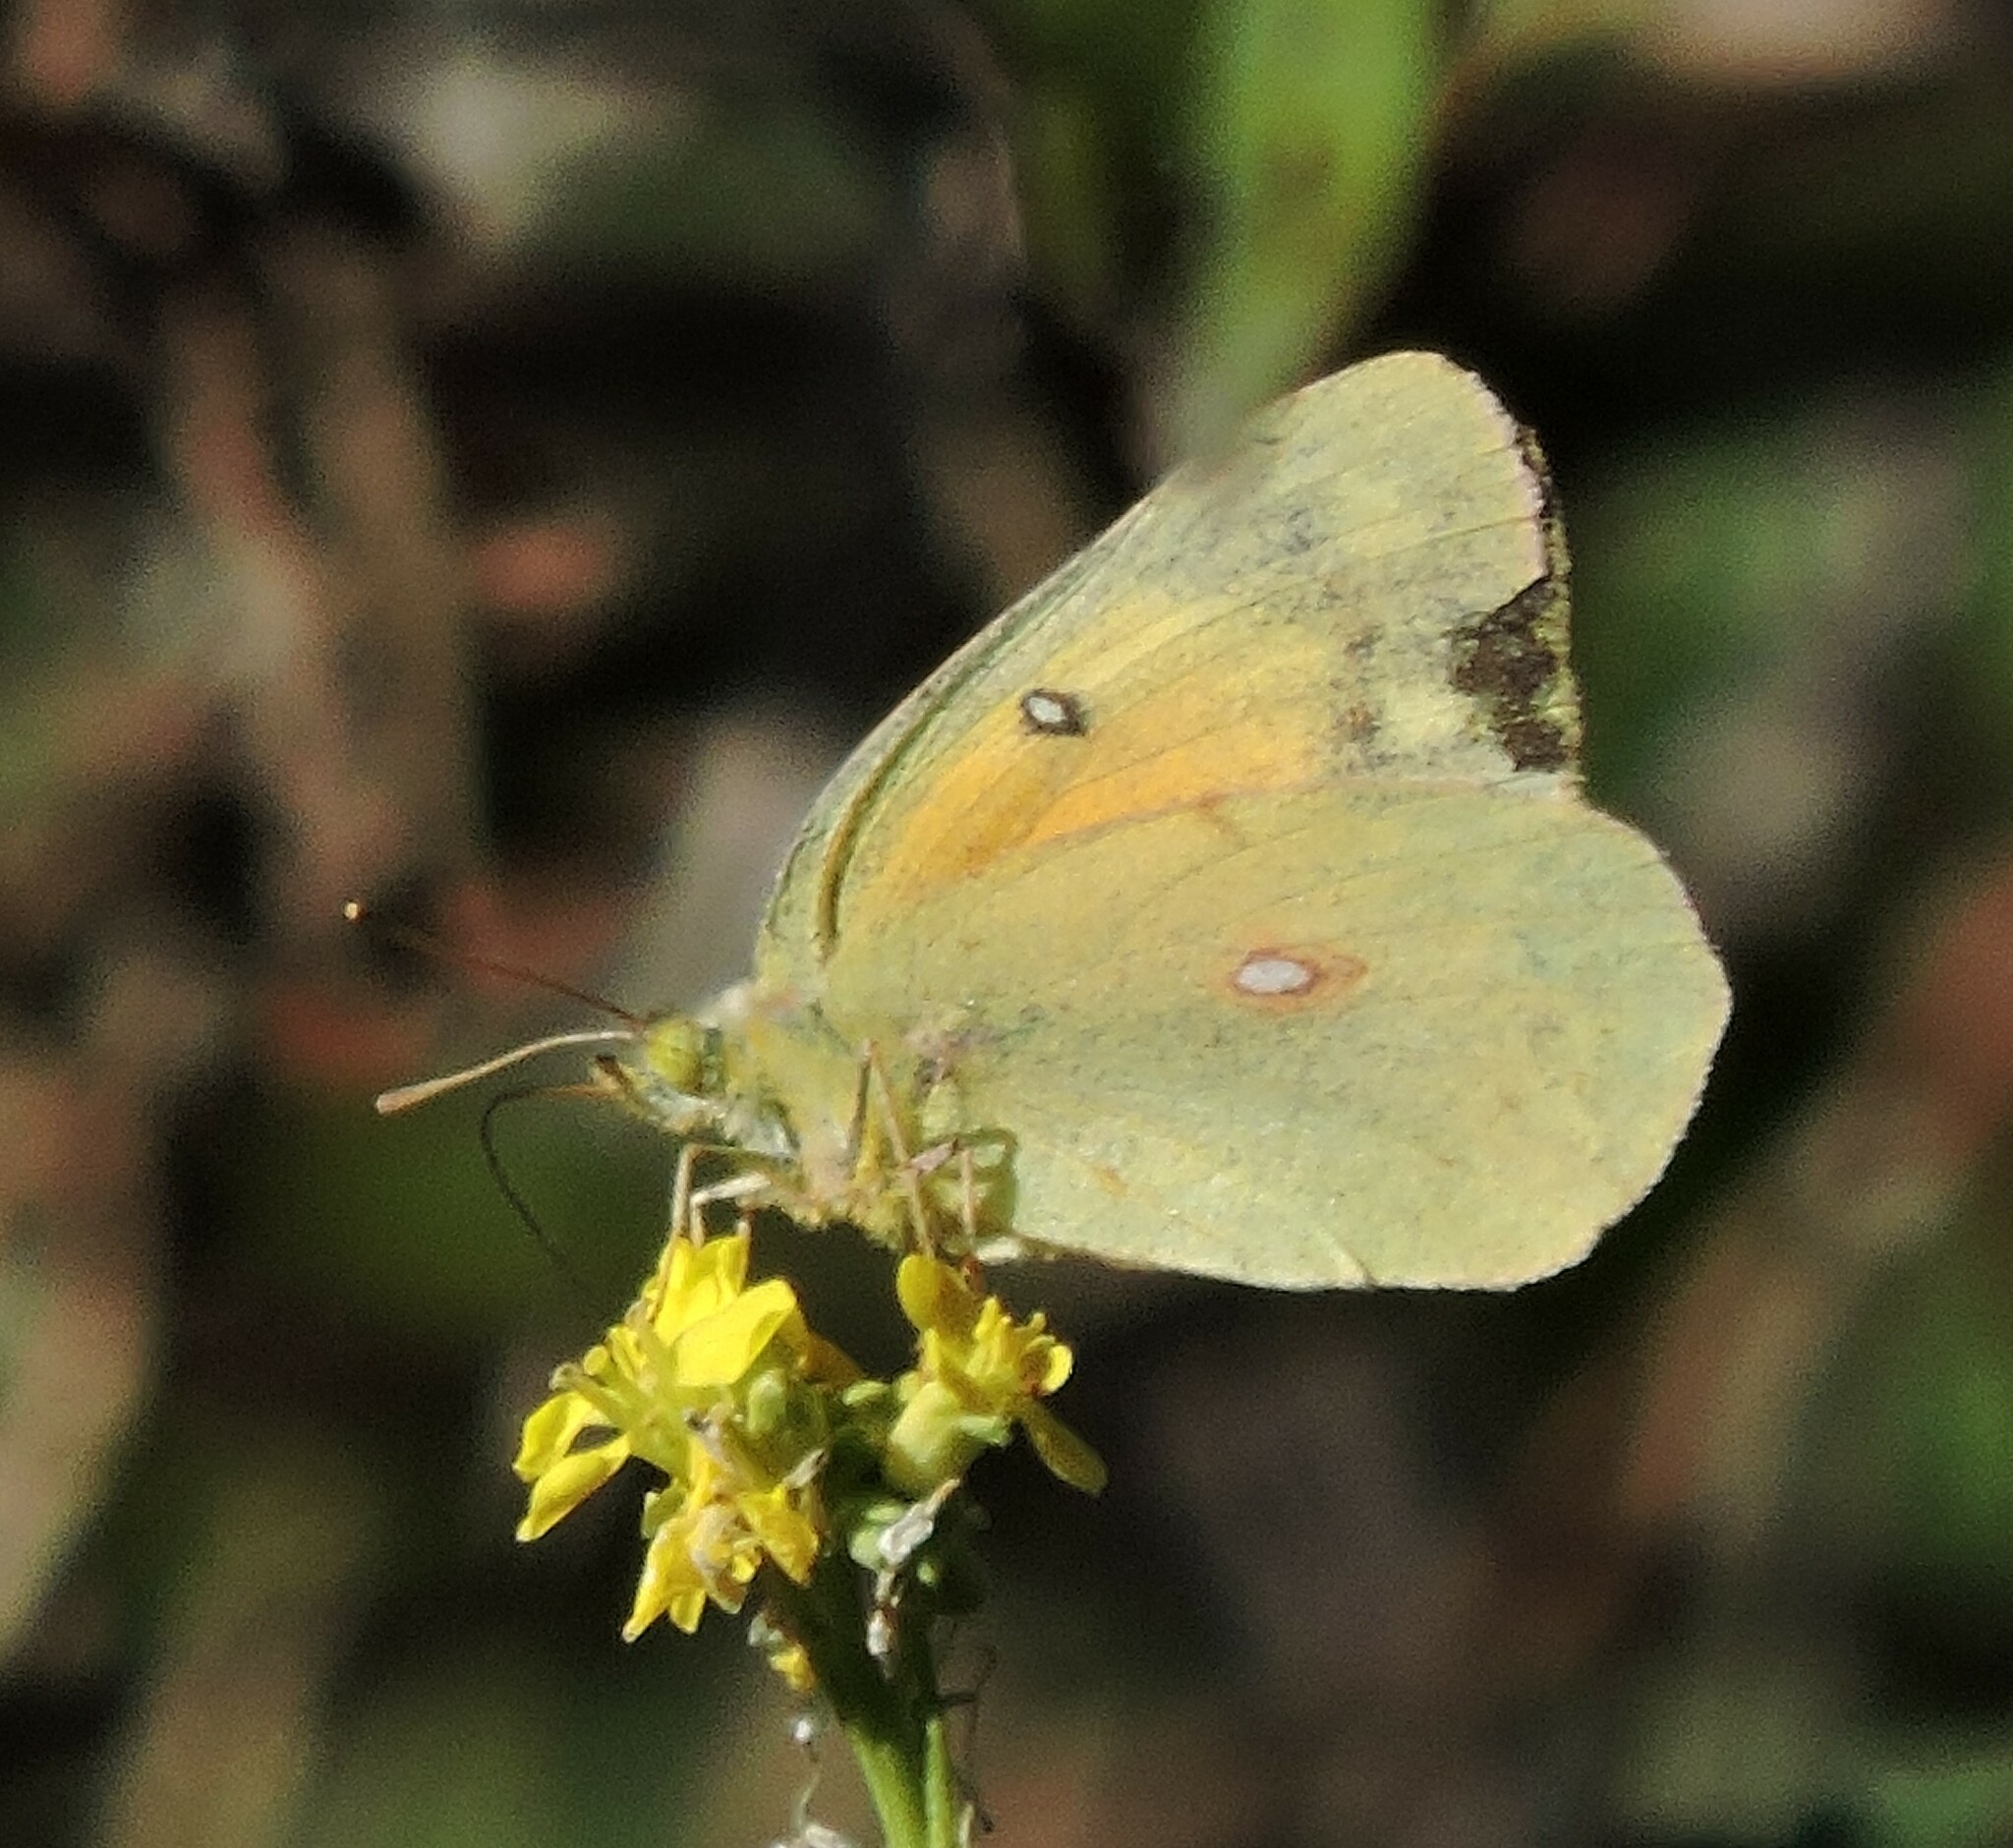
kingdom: Animalia
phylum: Arthropoda
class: Insecta
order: Lepidoptera
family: Pieridae
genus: Colias
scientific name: Colias eurytheme
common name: Alfalfa butterfly
